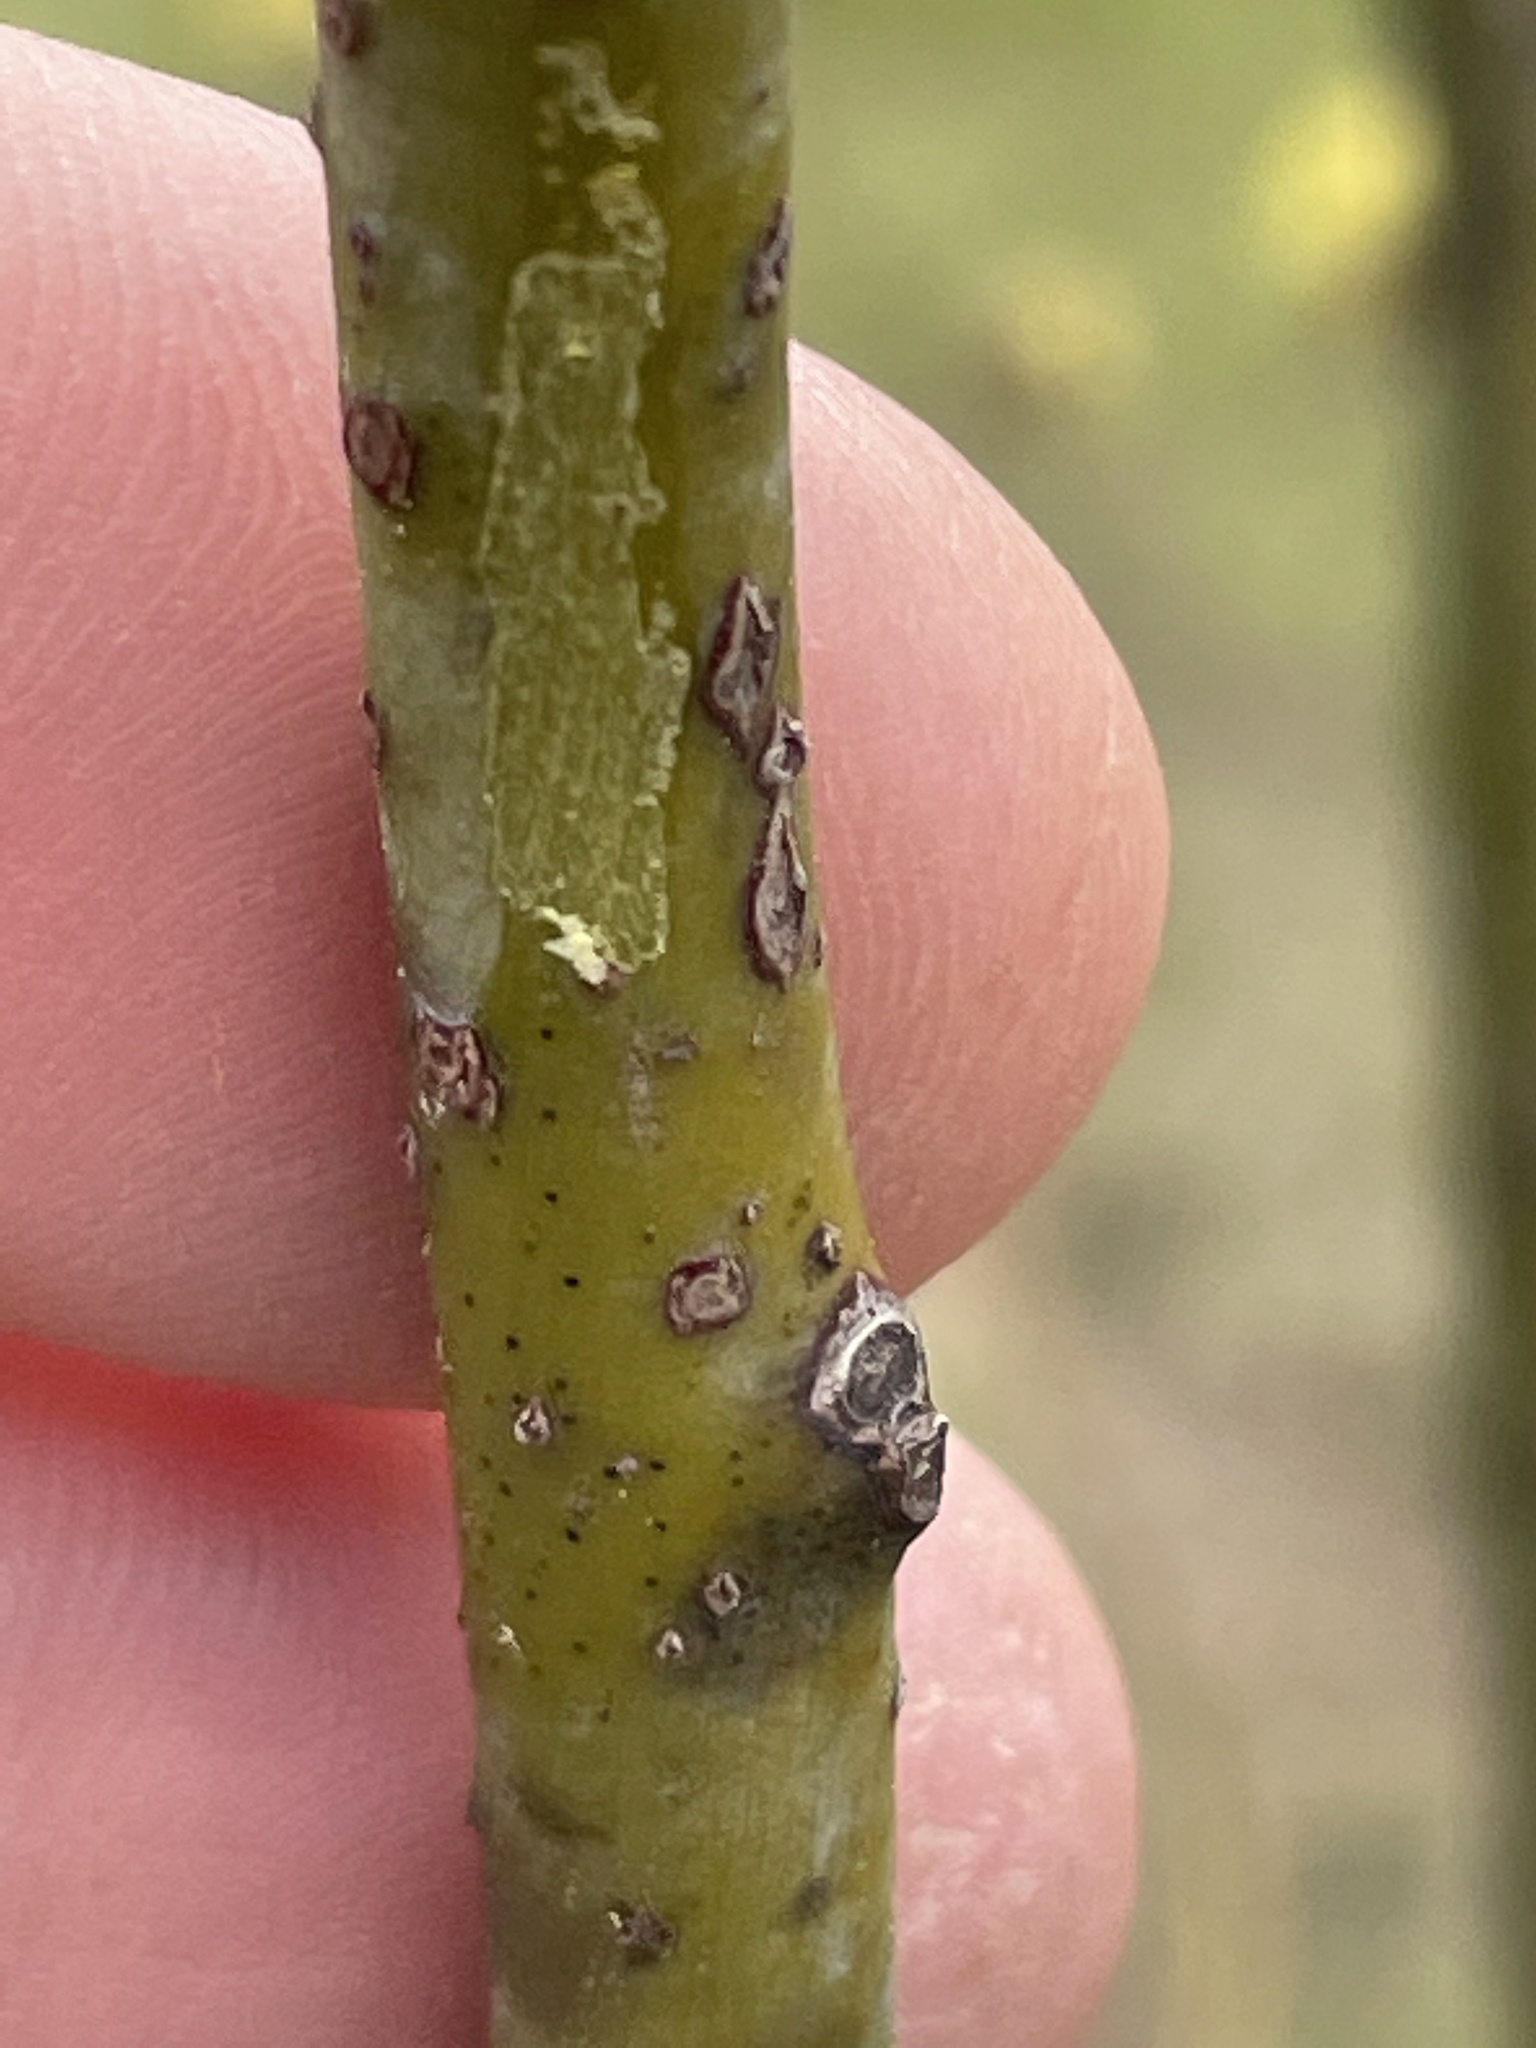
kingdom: Plantae
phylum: Tracheophyta
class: Magnoliopsida
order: Laurales
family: Lauraceae
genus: Sassafras
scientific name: Sassafras albidum
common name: Sassafras
